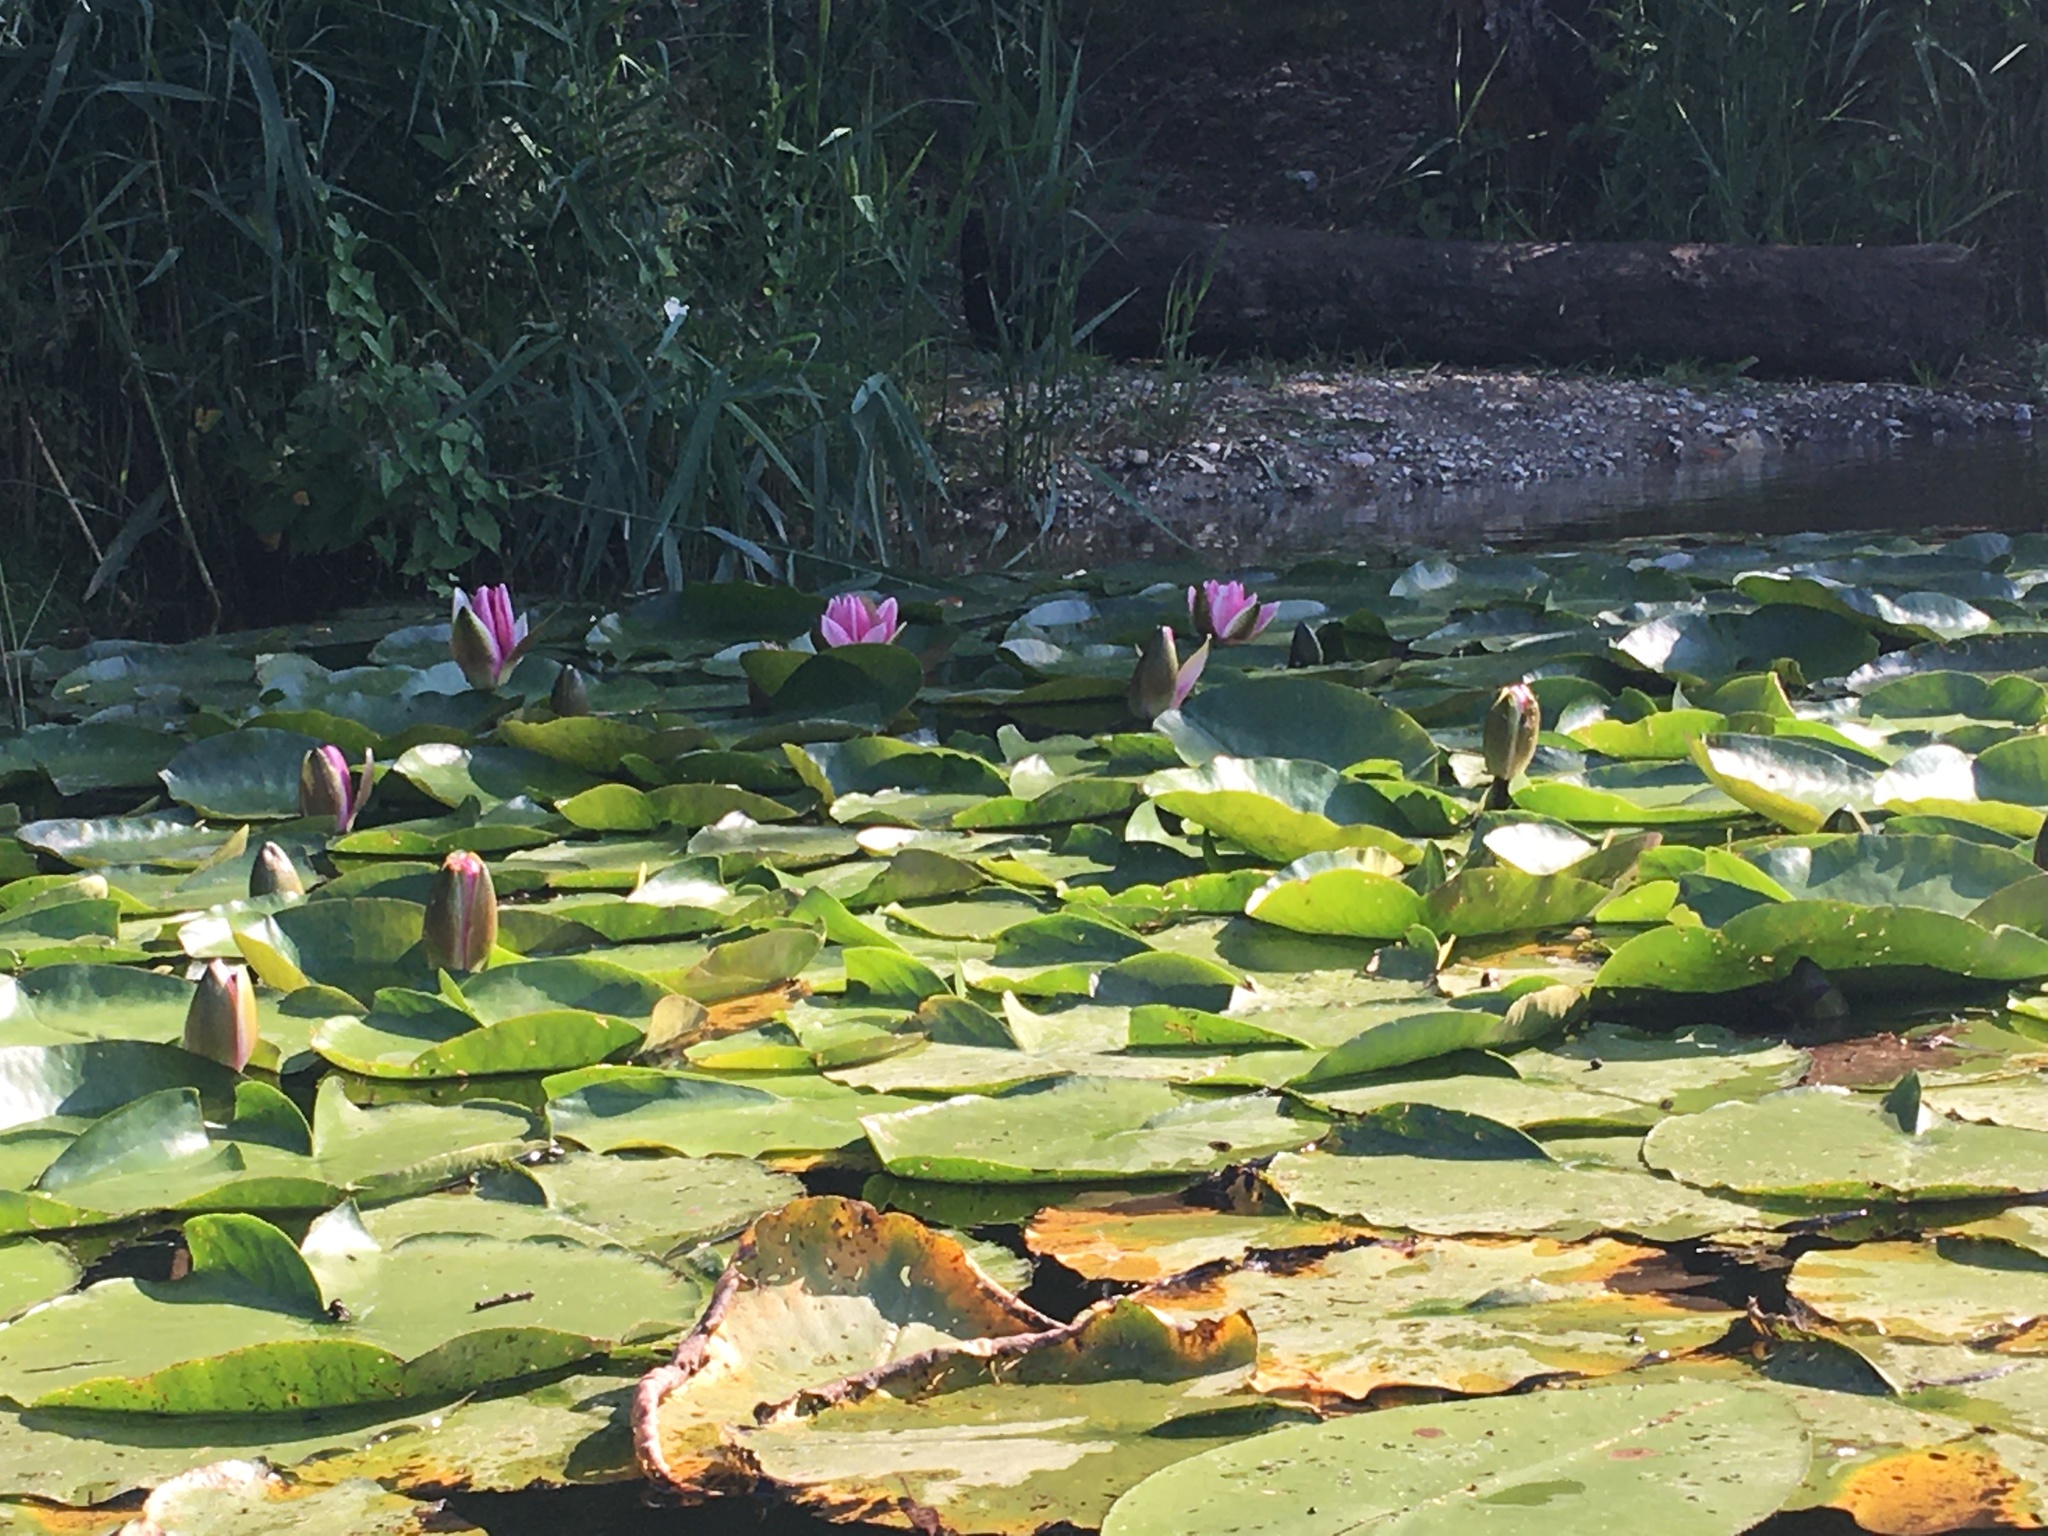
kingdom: Plantae
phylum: Tracheophyta
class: Magnoliopsida
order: Nymphaeales
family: Nymphaeaceae
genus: Nymphaea
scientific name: Nymphaea alba
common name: White water-lily
